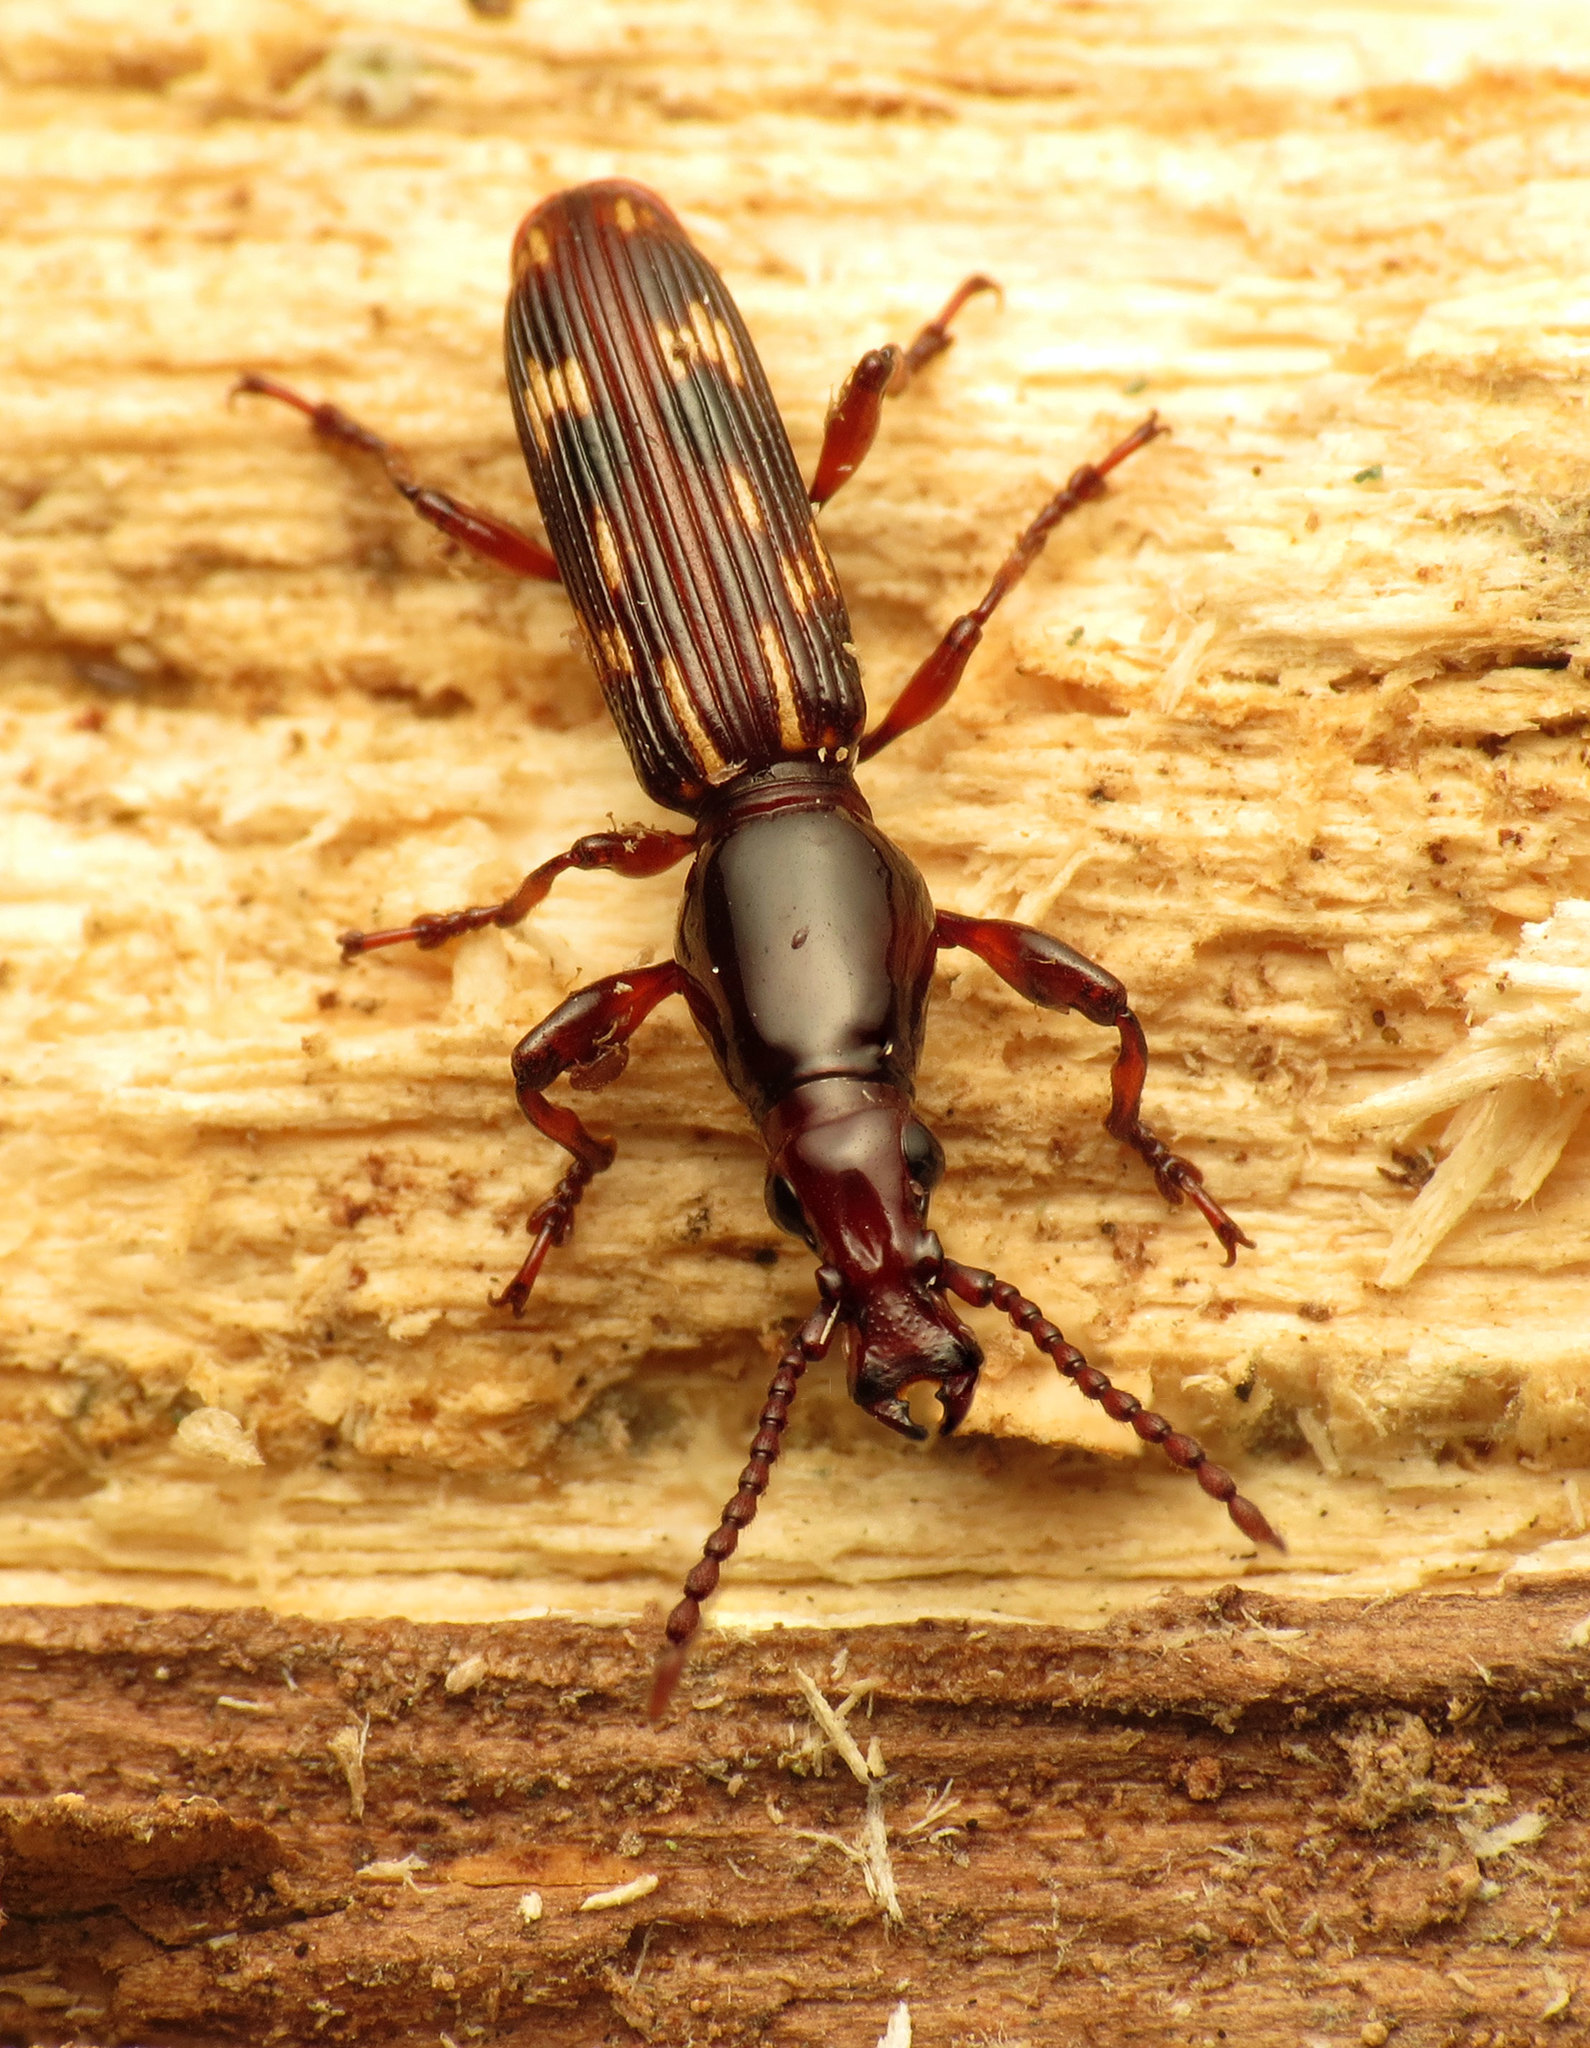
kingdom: Animalia
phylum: Arthropoda
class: Insecta
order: Coleoptera
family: Brentidae
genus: Arrenodes
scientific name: Arrenodes minutus
